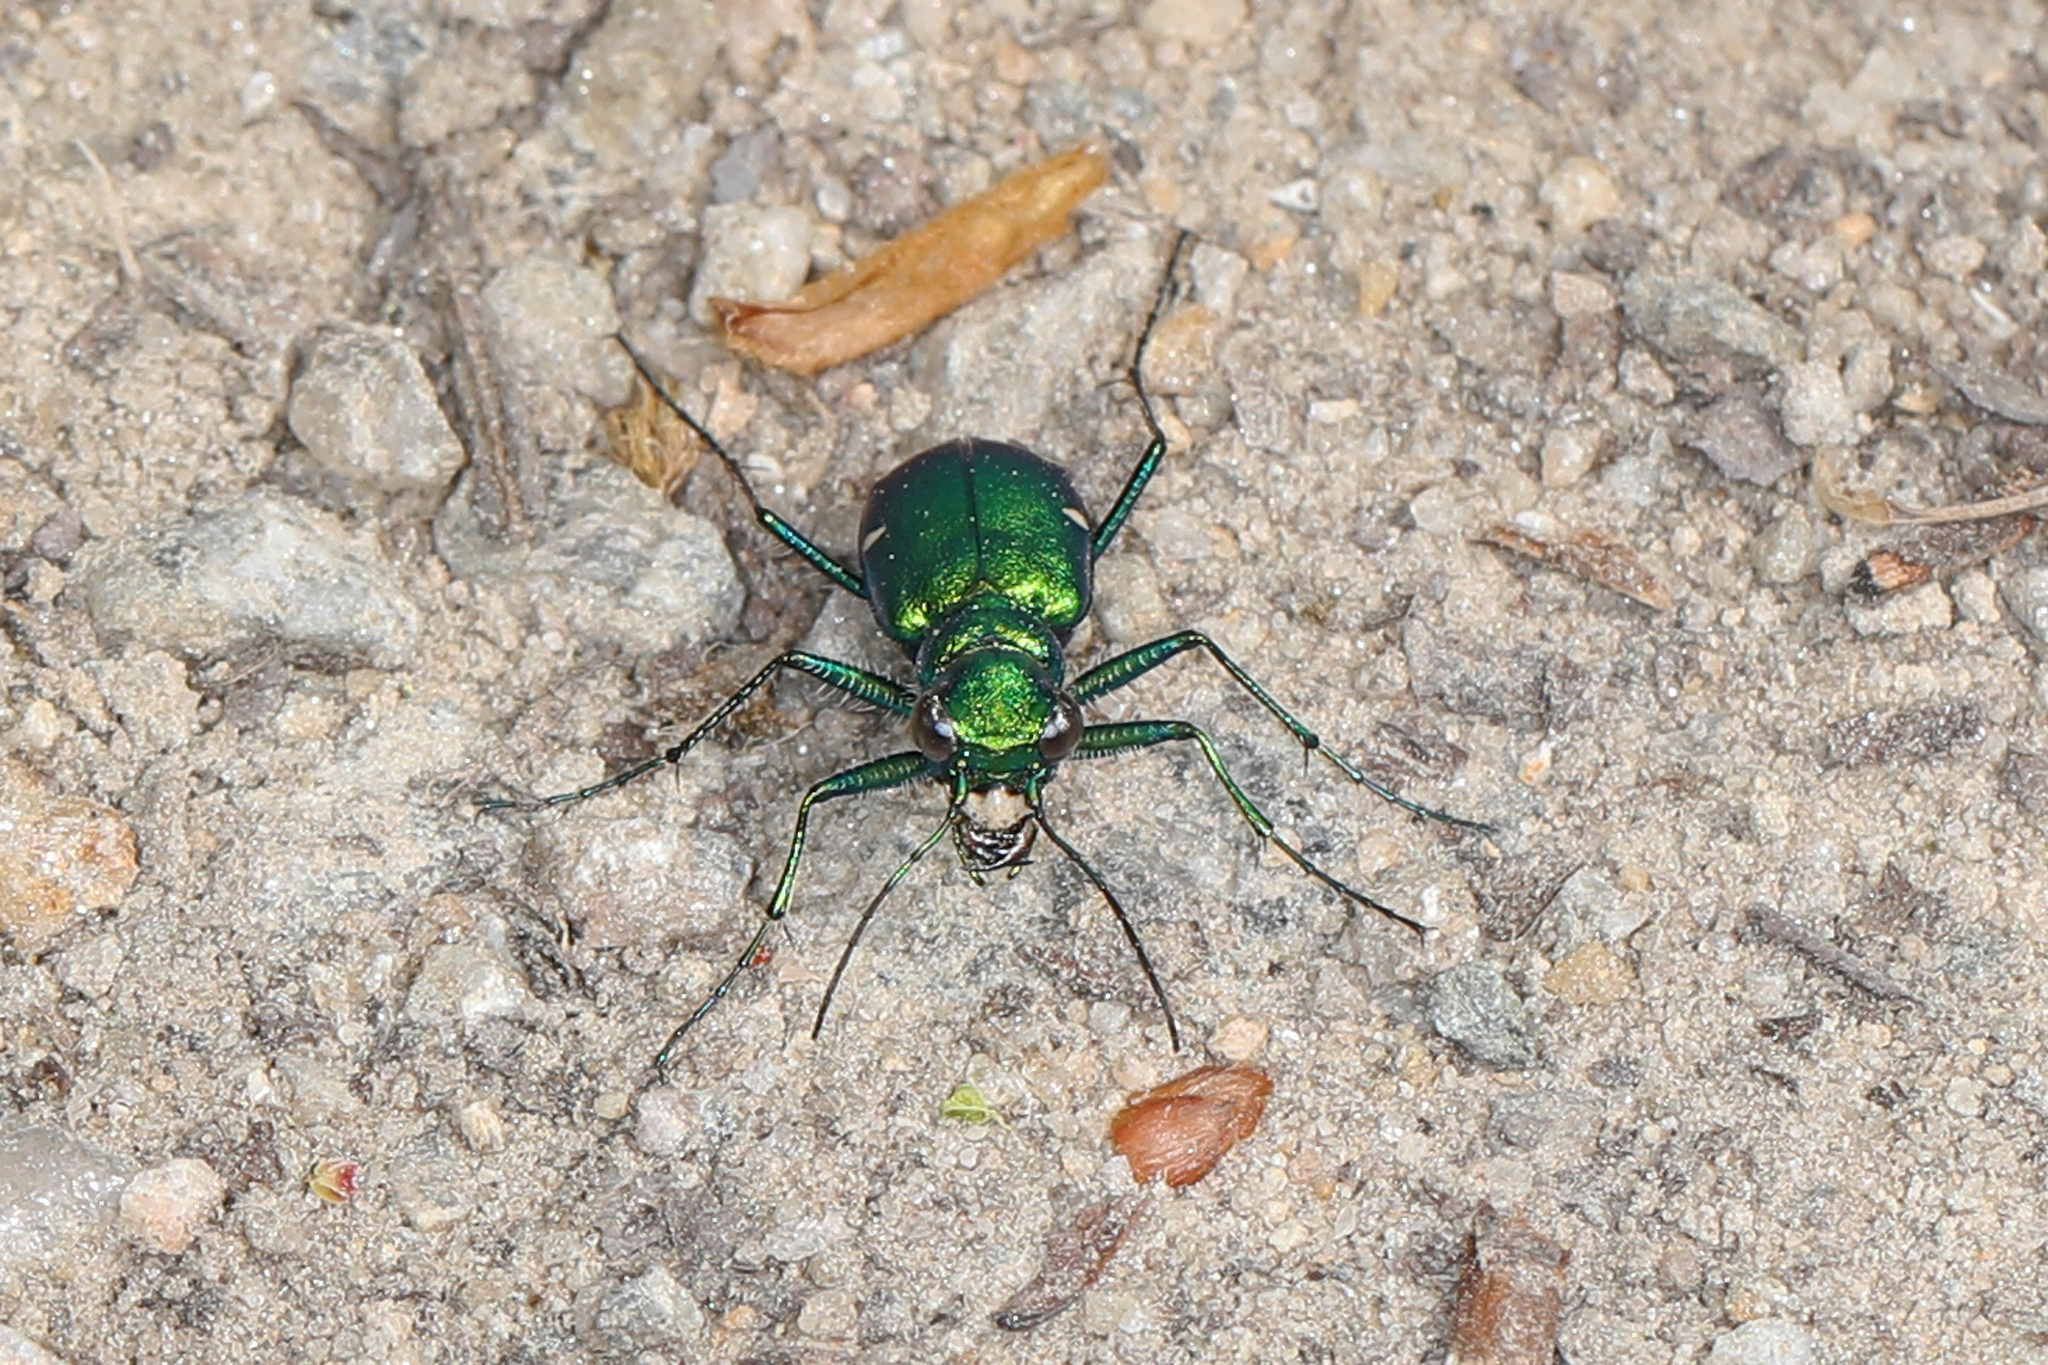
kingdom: Animalia
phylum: Arthropoda
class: Insecta
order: Coleoptera
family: Carabidae
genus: Cicindela
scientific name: Cicindela sexguttata
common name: Six-spotted tiger beetle
